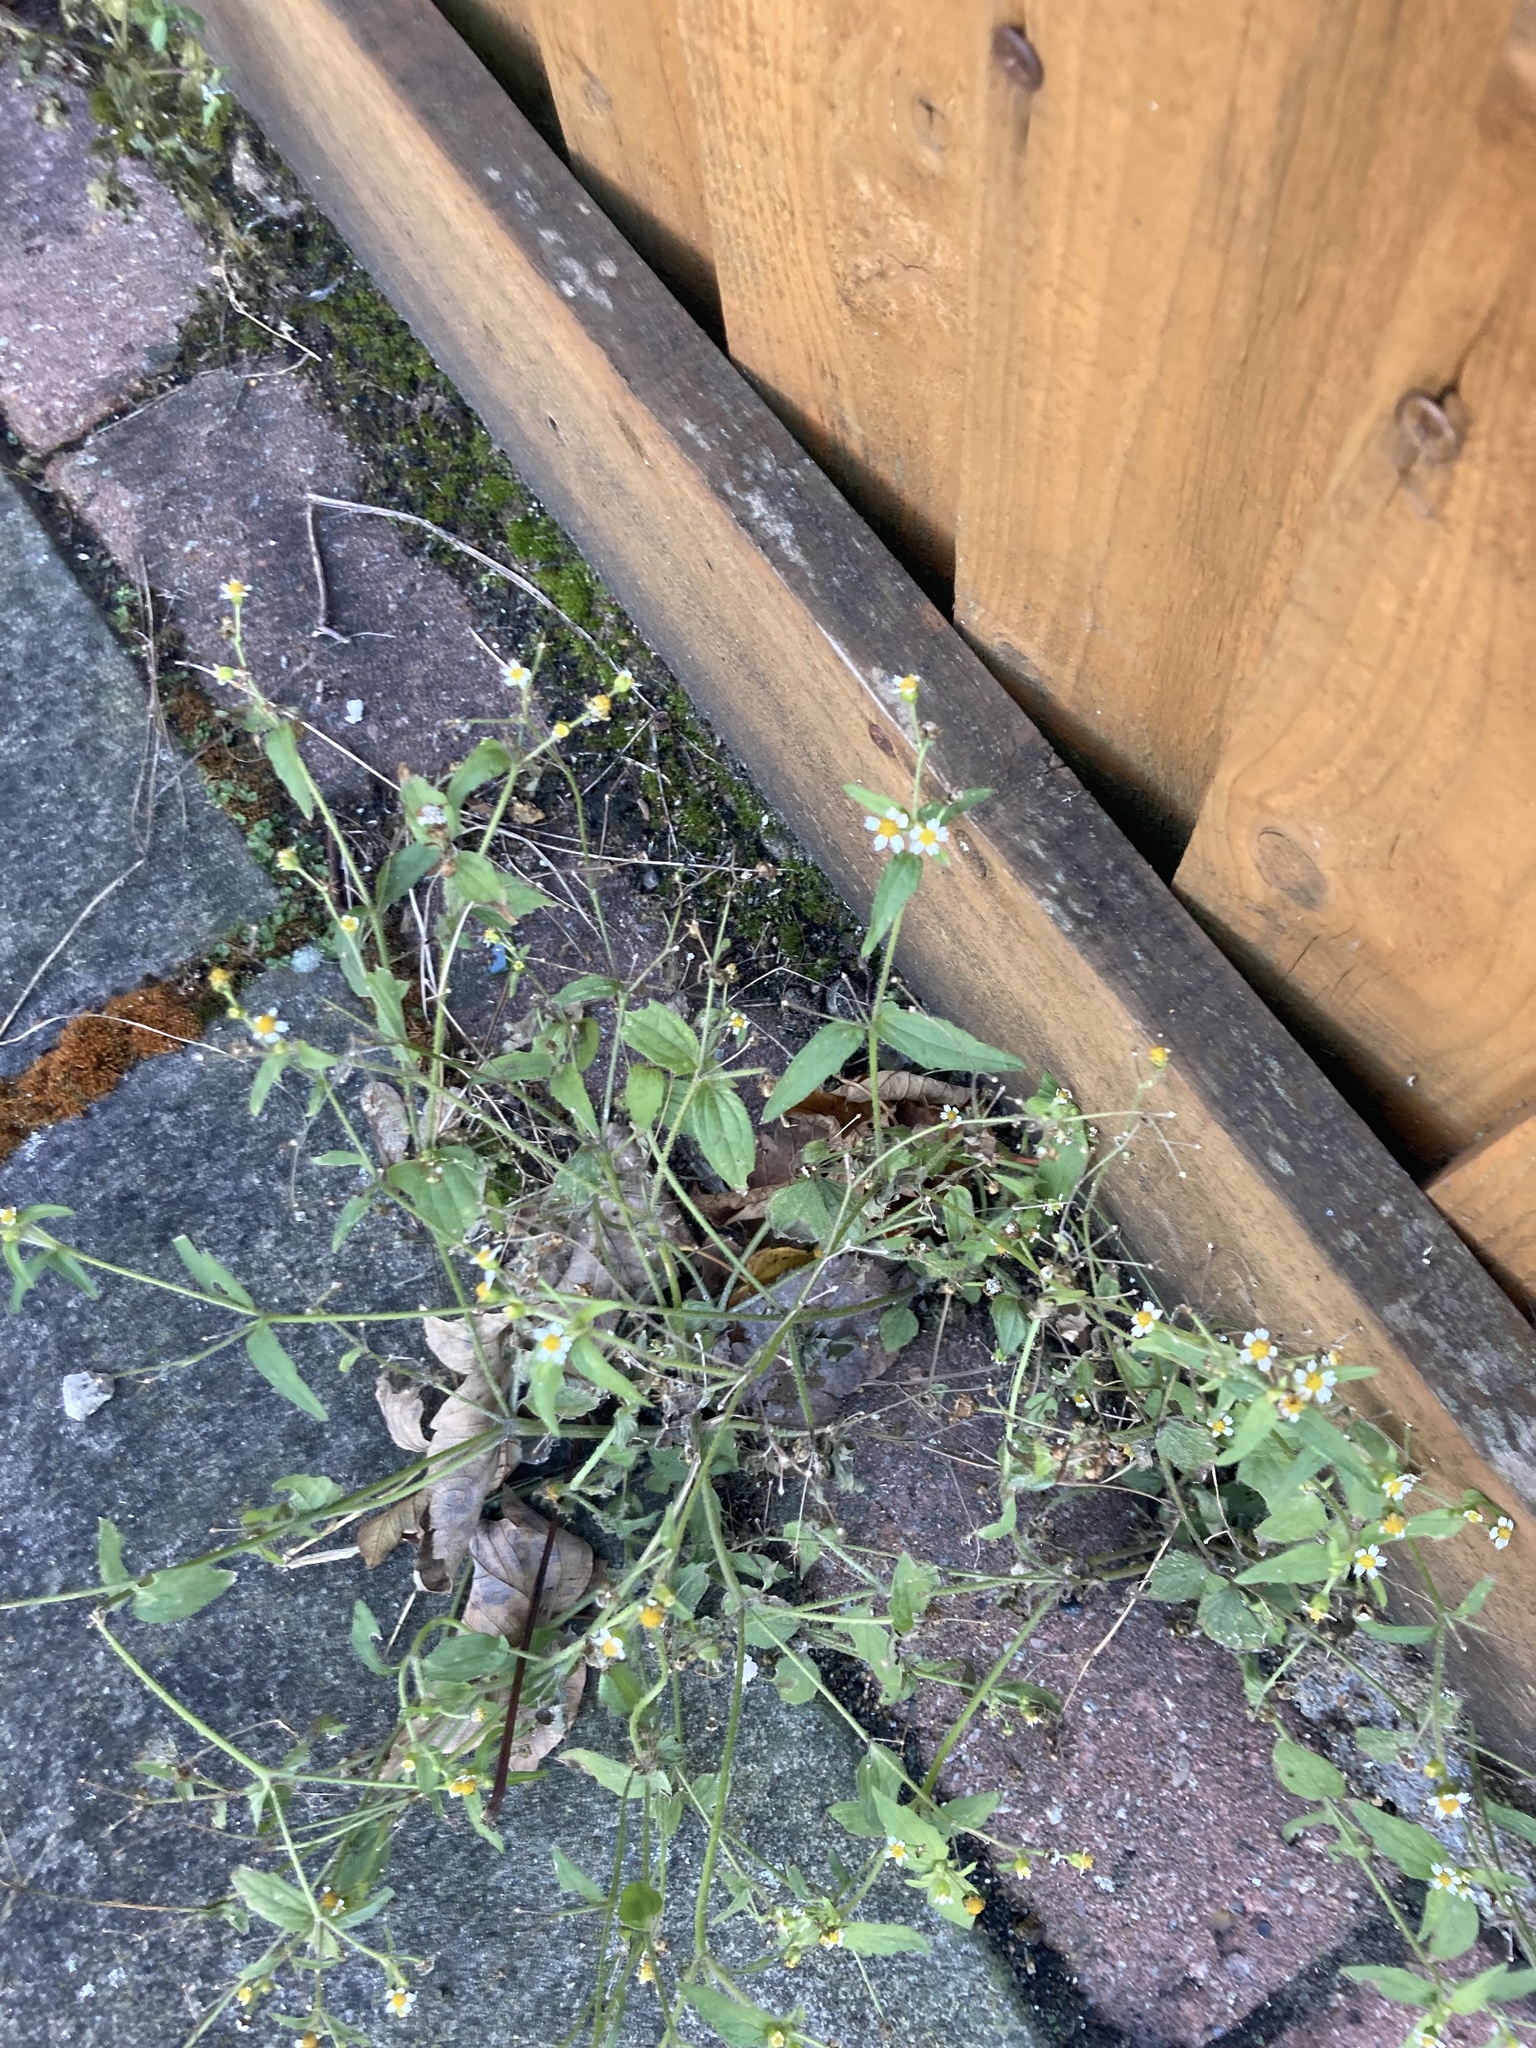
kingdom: Plantae
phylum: Tracheophyta
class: Magnoliopsida
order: Asterales
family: Asteraceae
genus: Galinsoga
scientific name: Galinsoga quadriradiata
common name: Shaggy soldier
